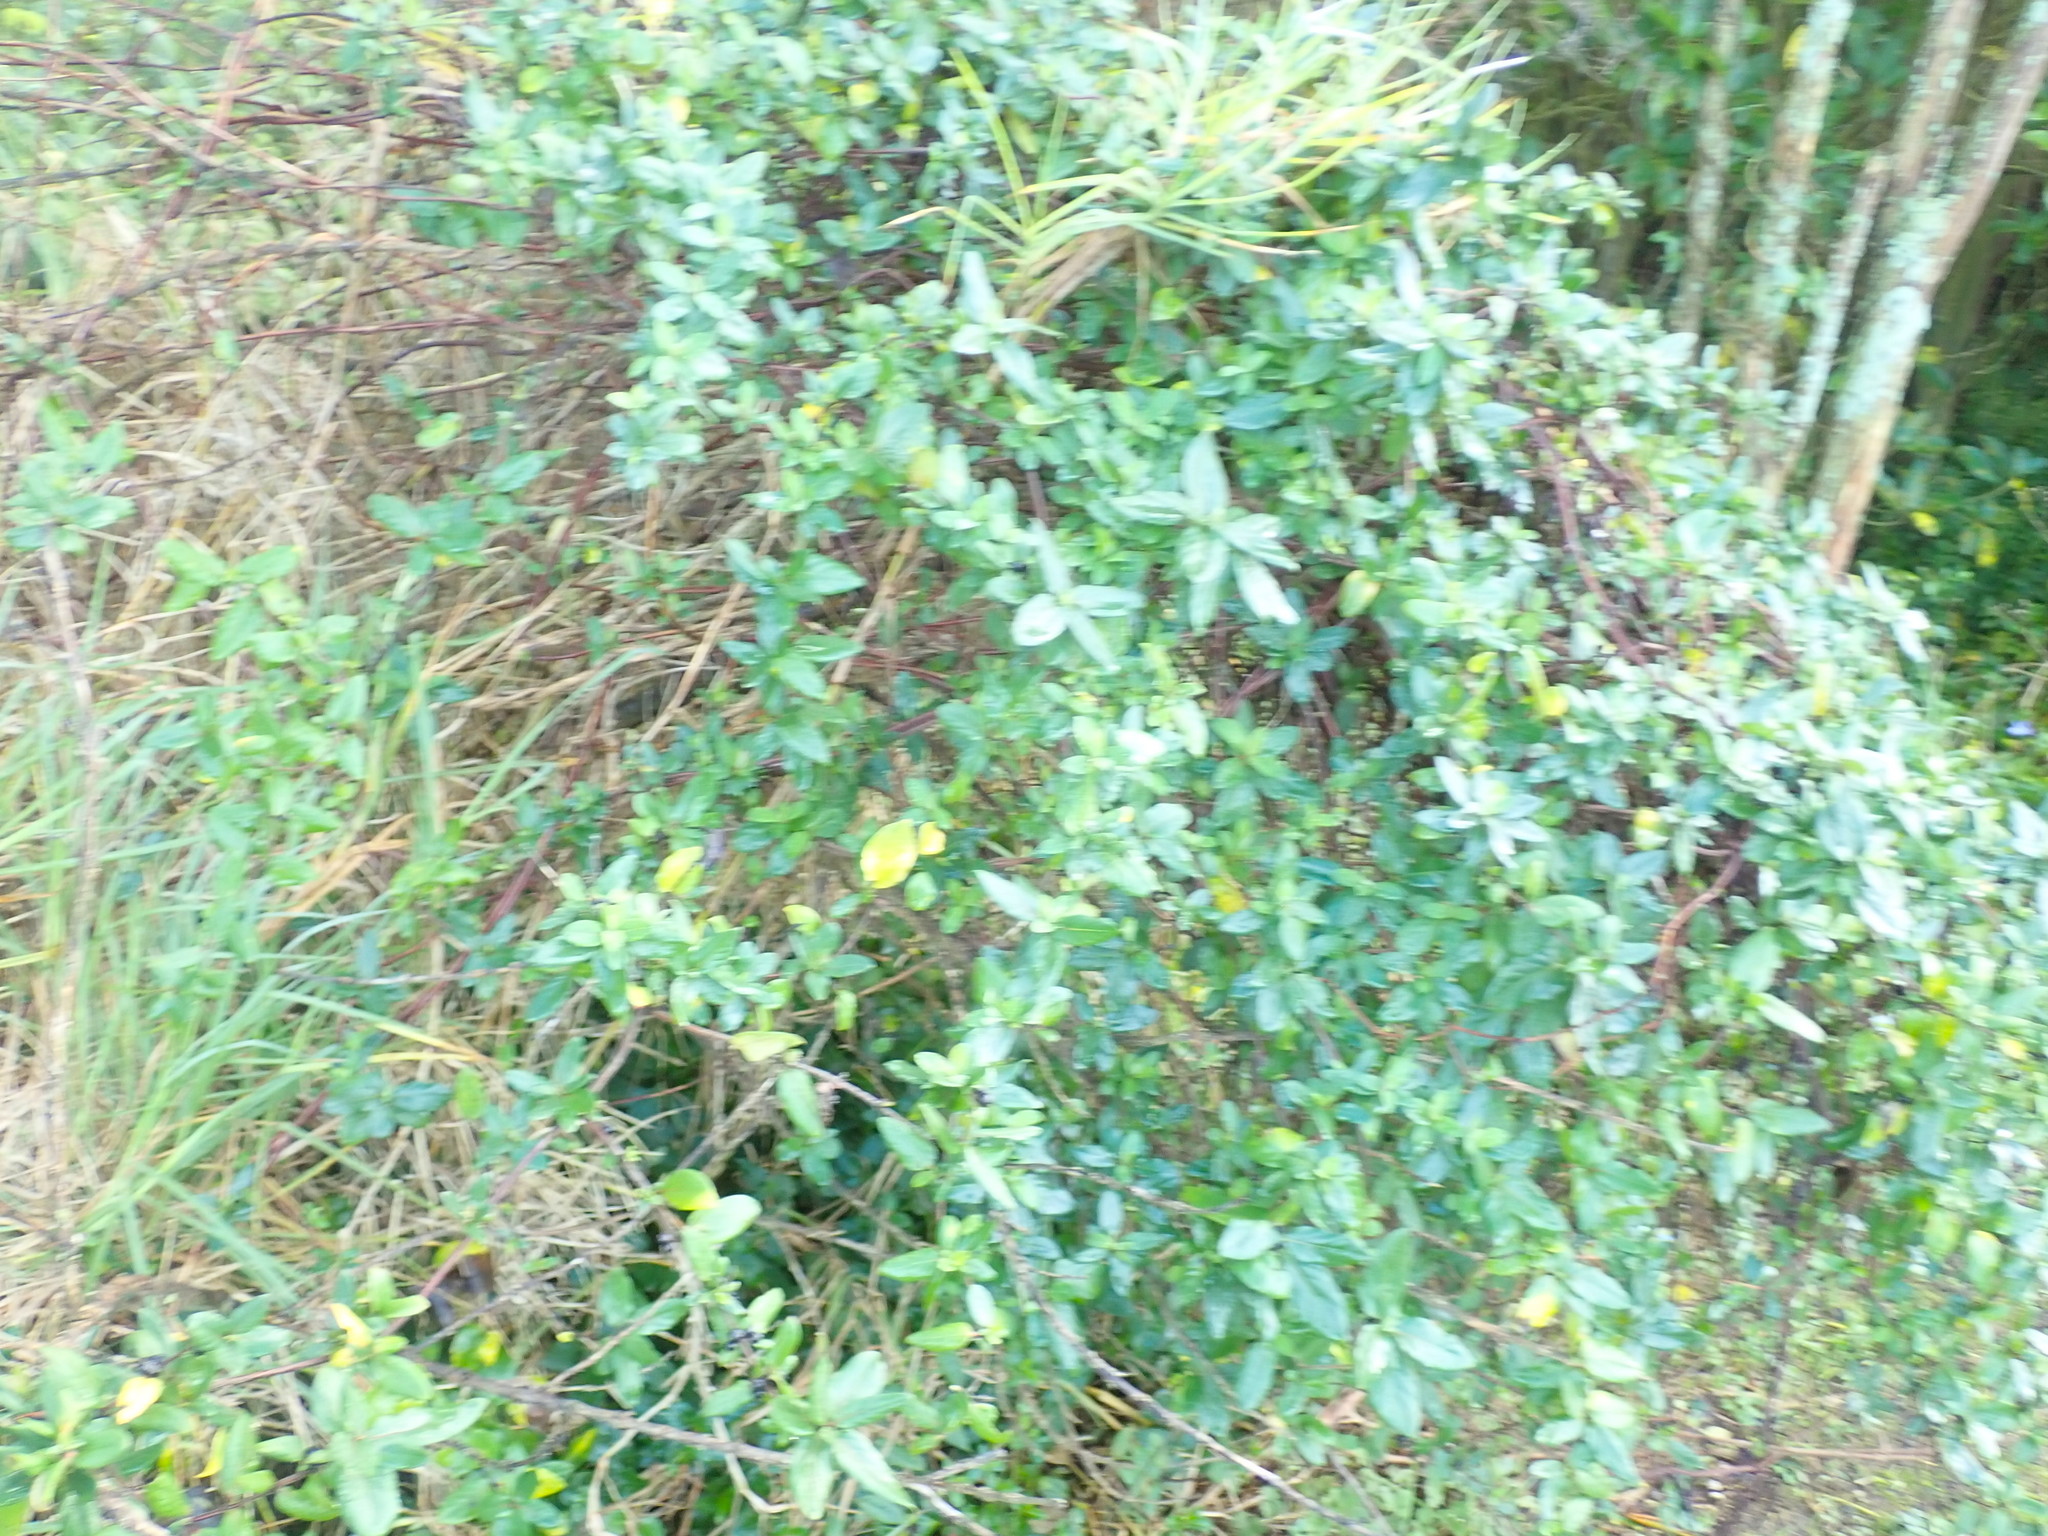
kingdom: Plantae
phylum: Tracheophyta
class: Magnoliopsida
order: Dipsacales
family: Caprifoliaceae
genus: Lonicera
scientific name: Lonicera japonica
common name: Japanese honeysuckle
